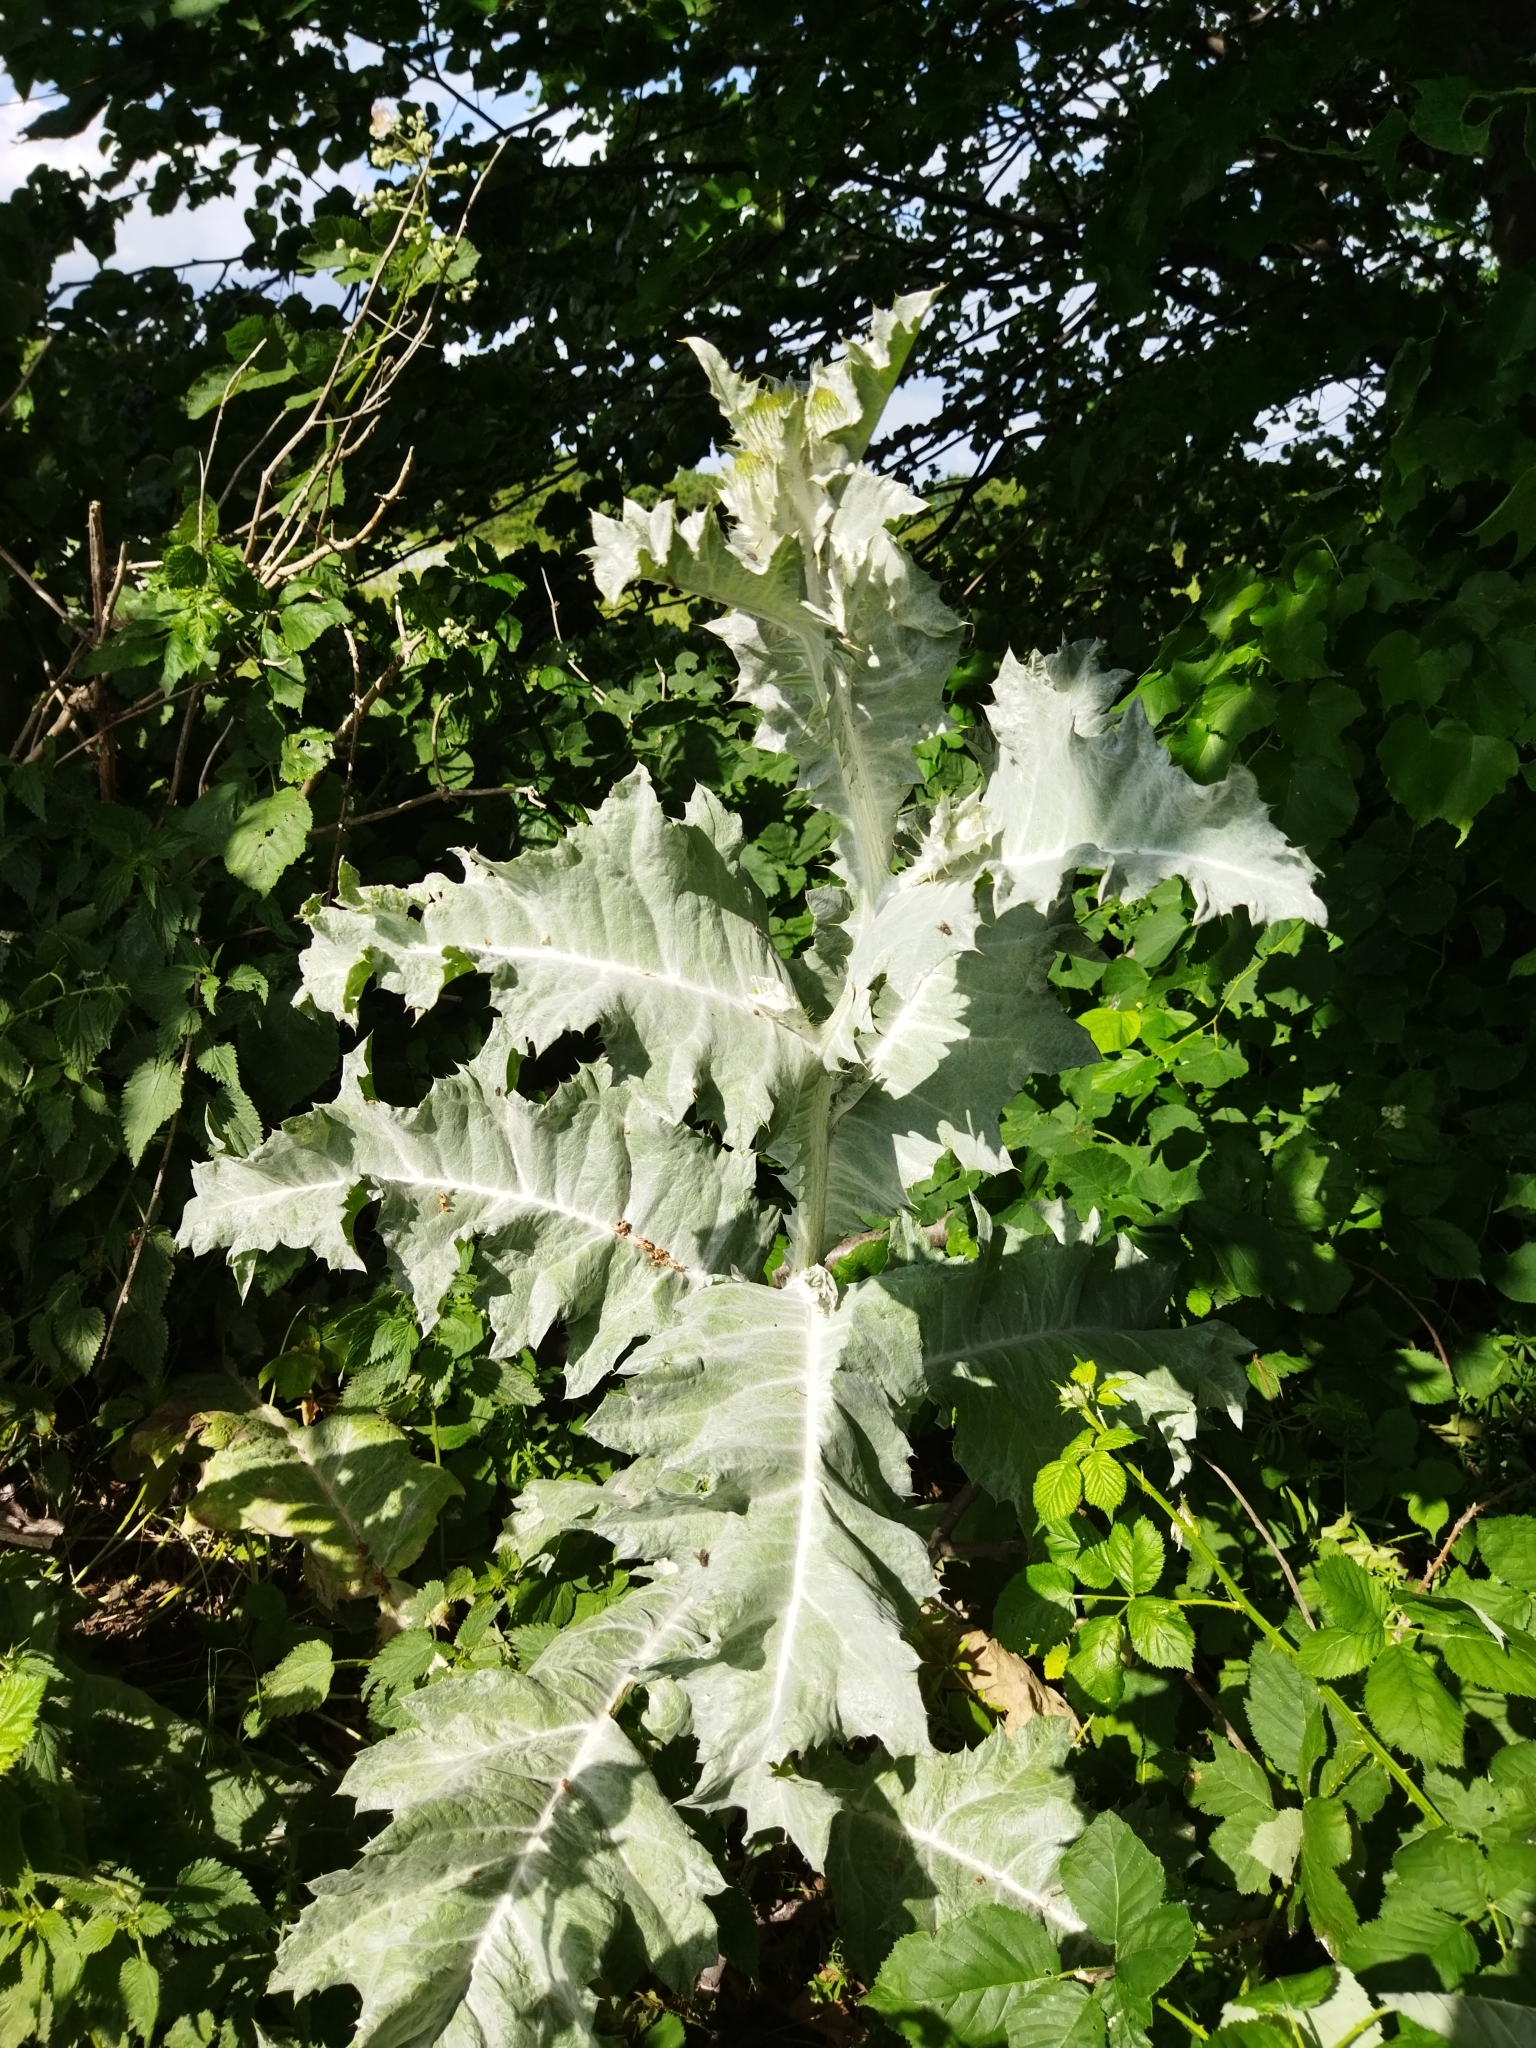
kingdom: Plantae
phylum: Tracheophyta
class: Magnoliopsida
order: Asterales
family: Asteraceae
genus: Onopordum
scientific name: Onopordum acanthium
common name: Scotch thistle
